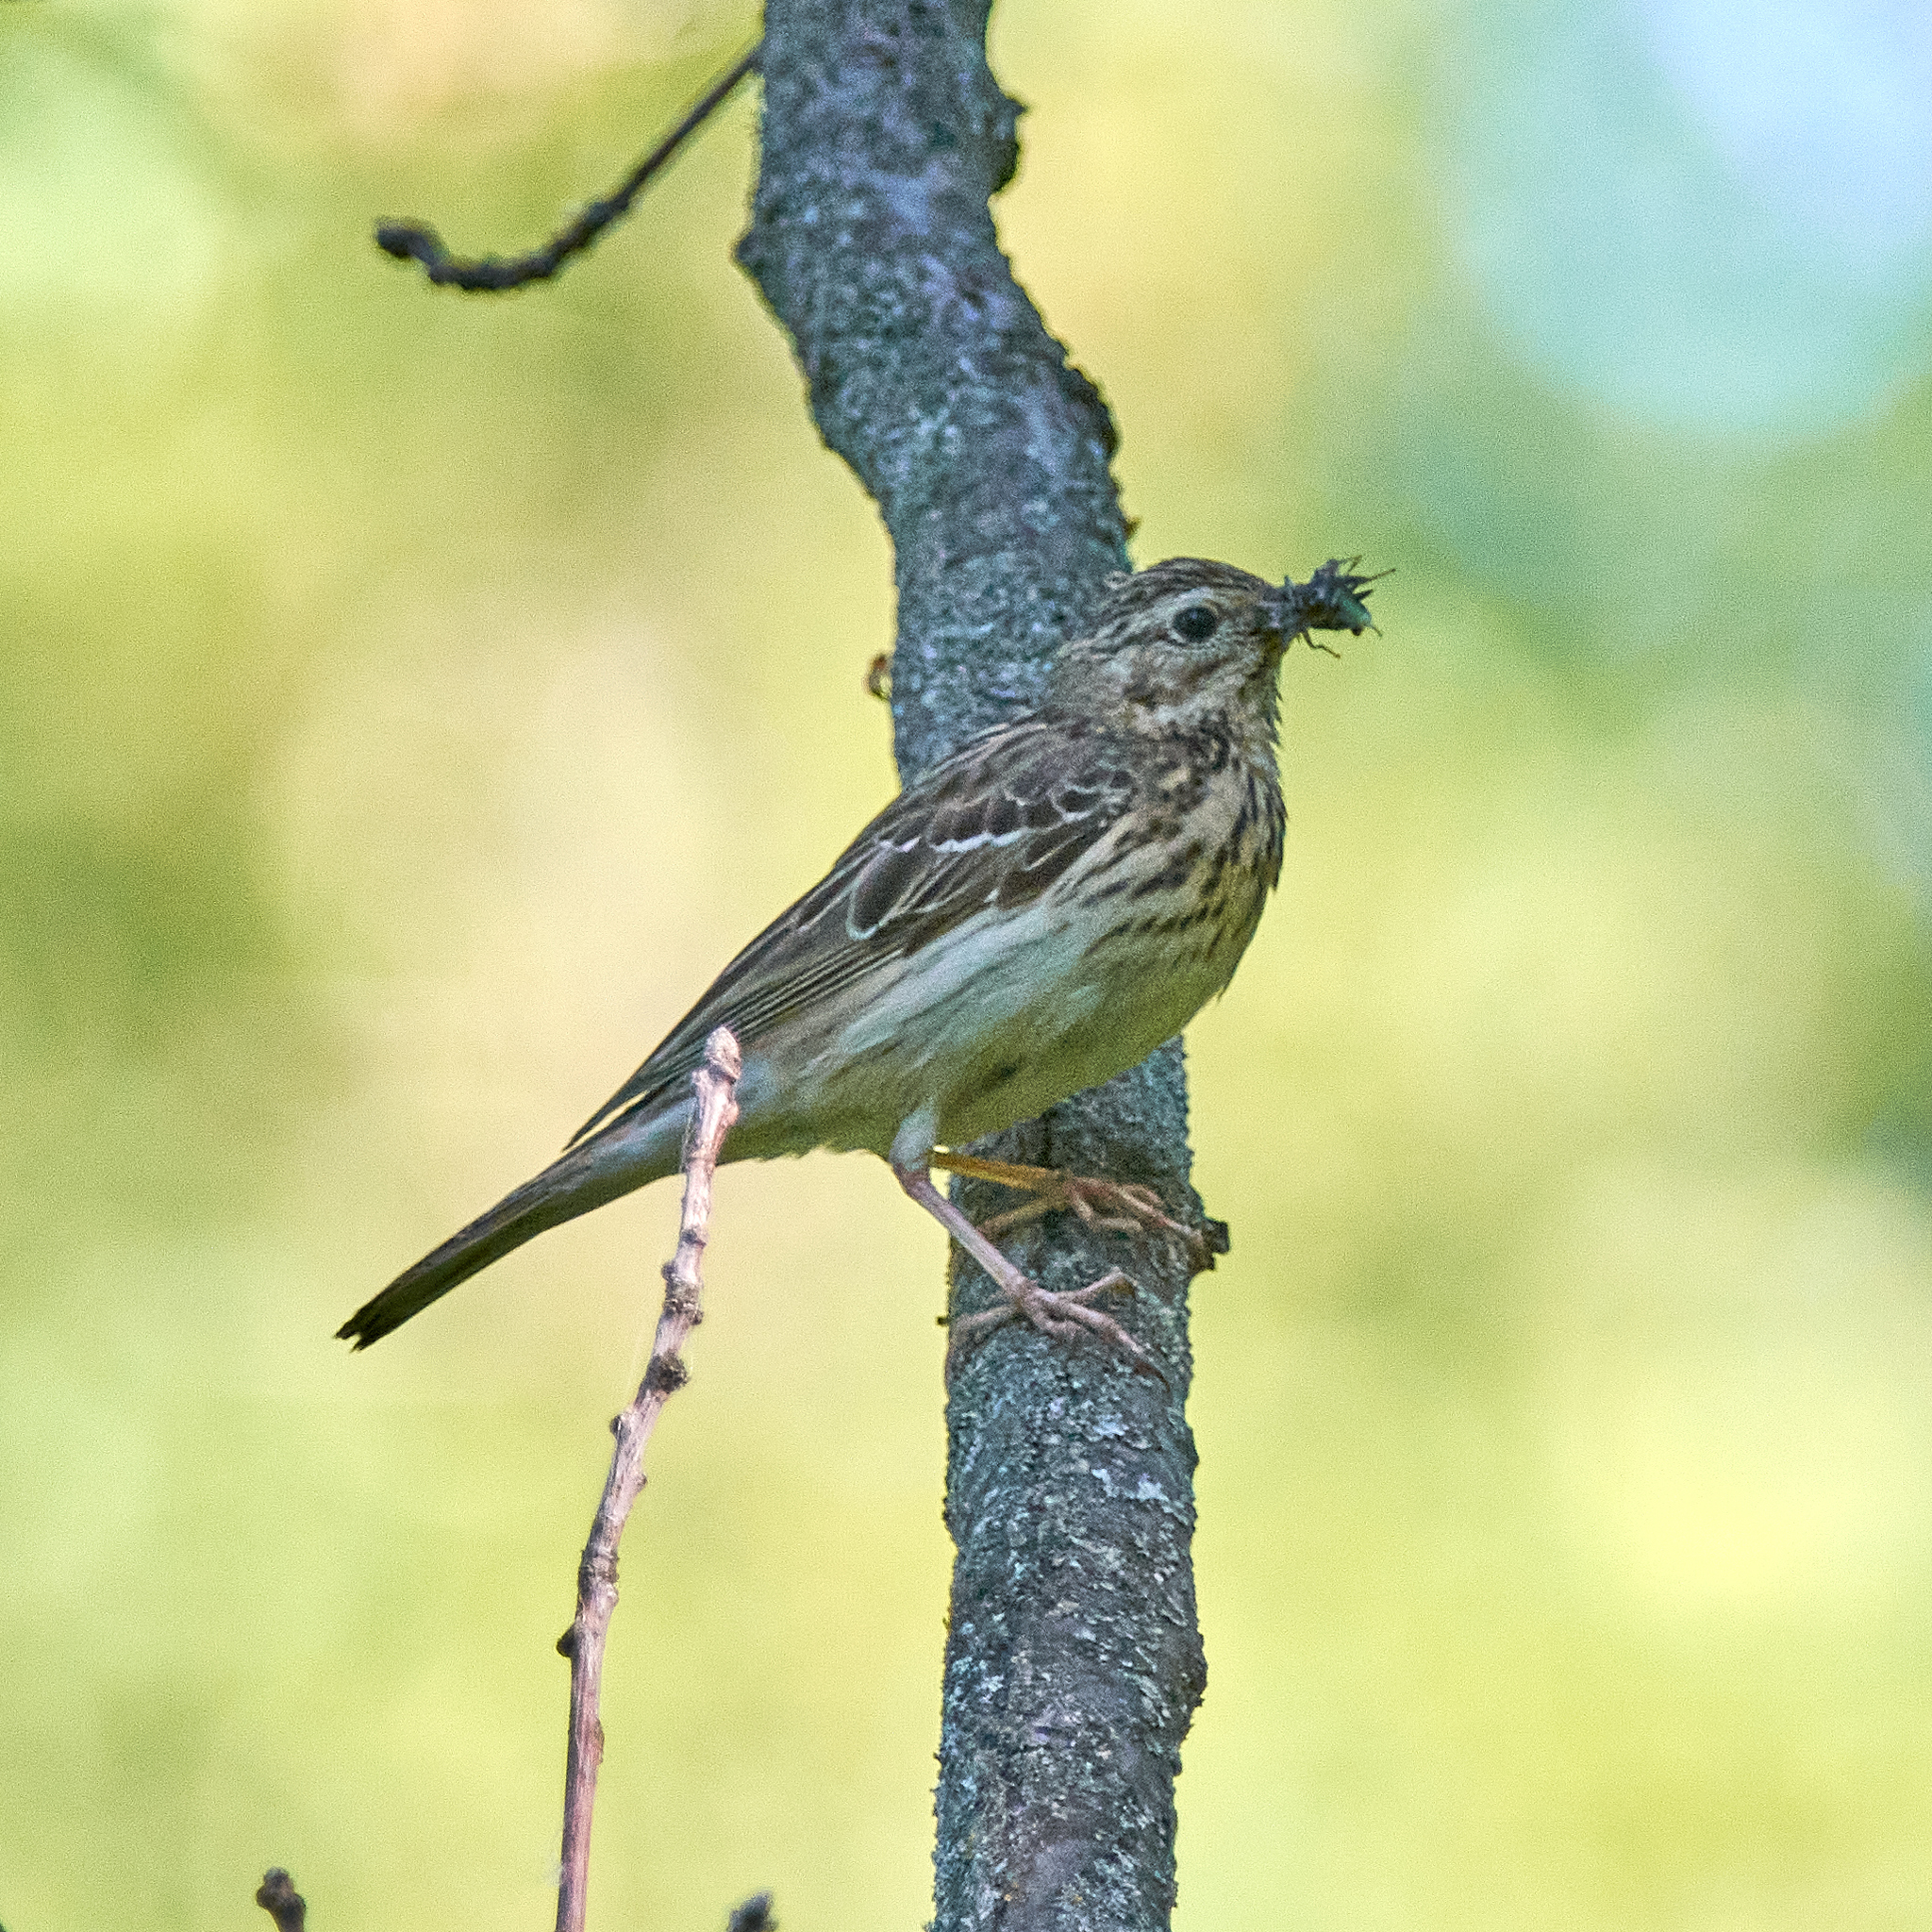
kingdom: Animalia
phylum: Chordata
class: Aves
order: Passeriformes
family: Motacillidae
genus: Anthus
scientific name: Anthus trivialis
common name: Tree pipit
